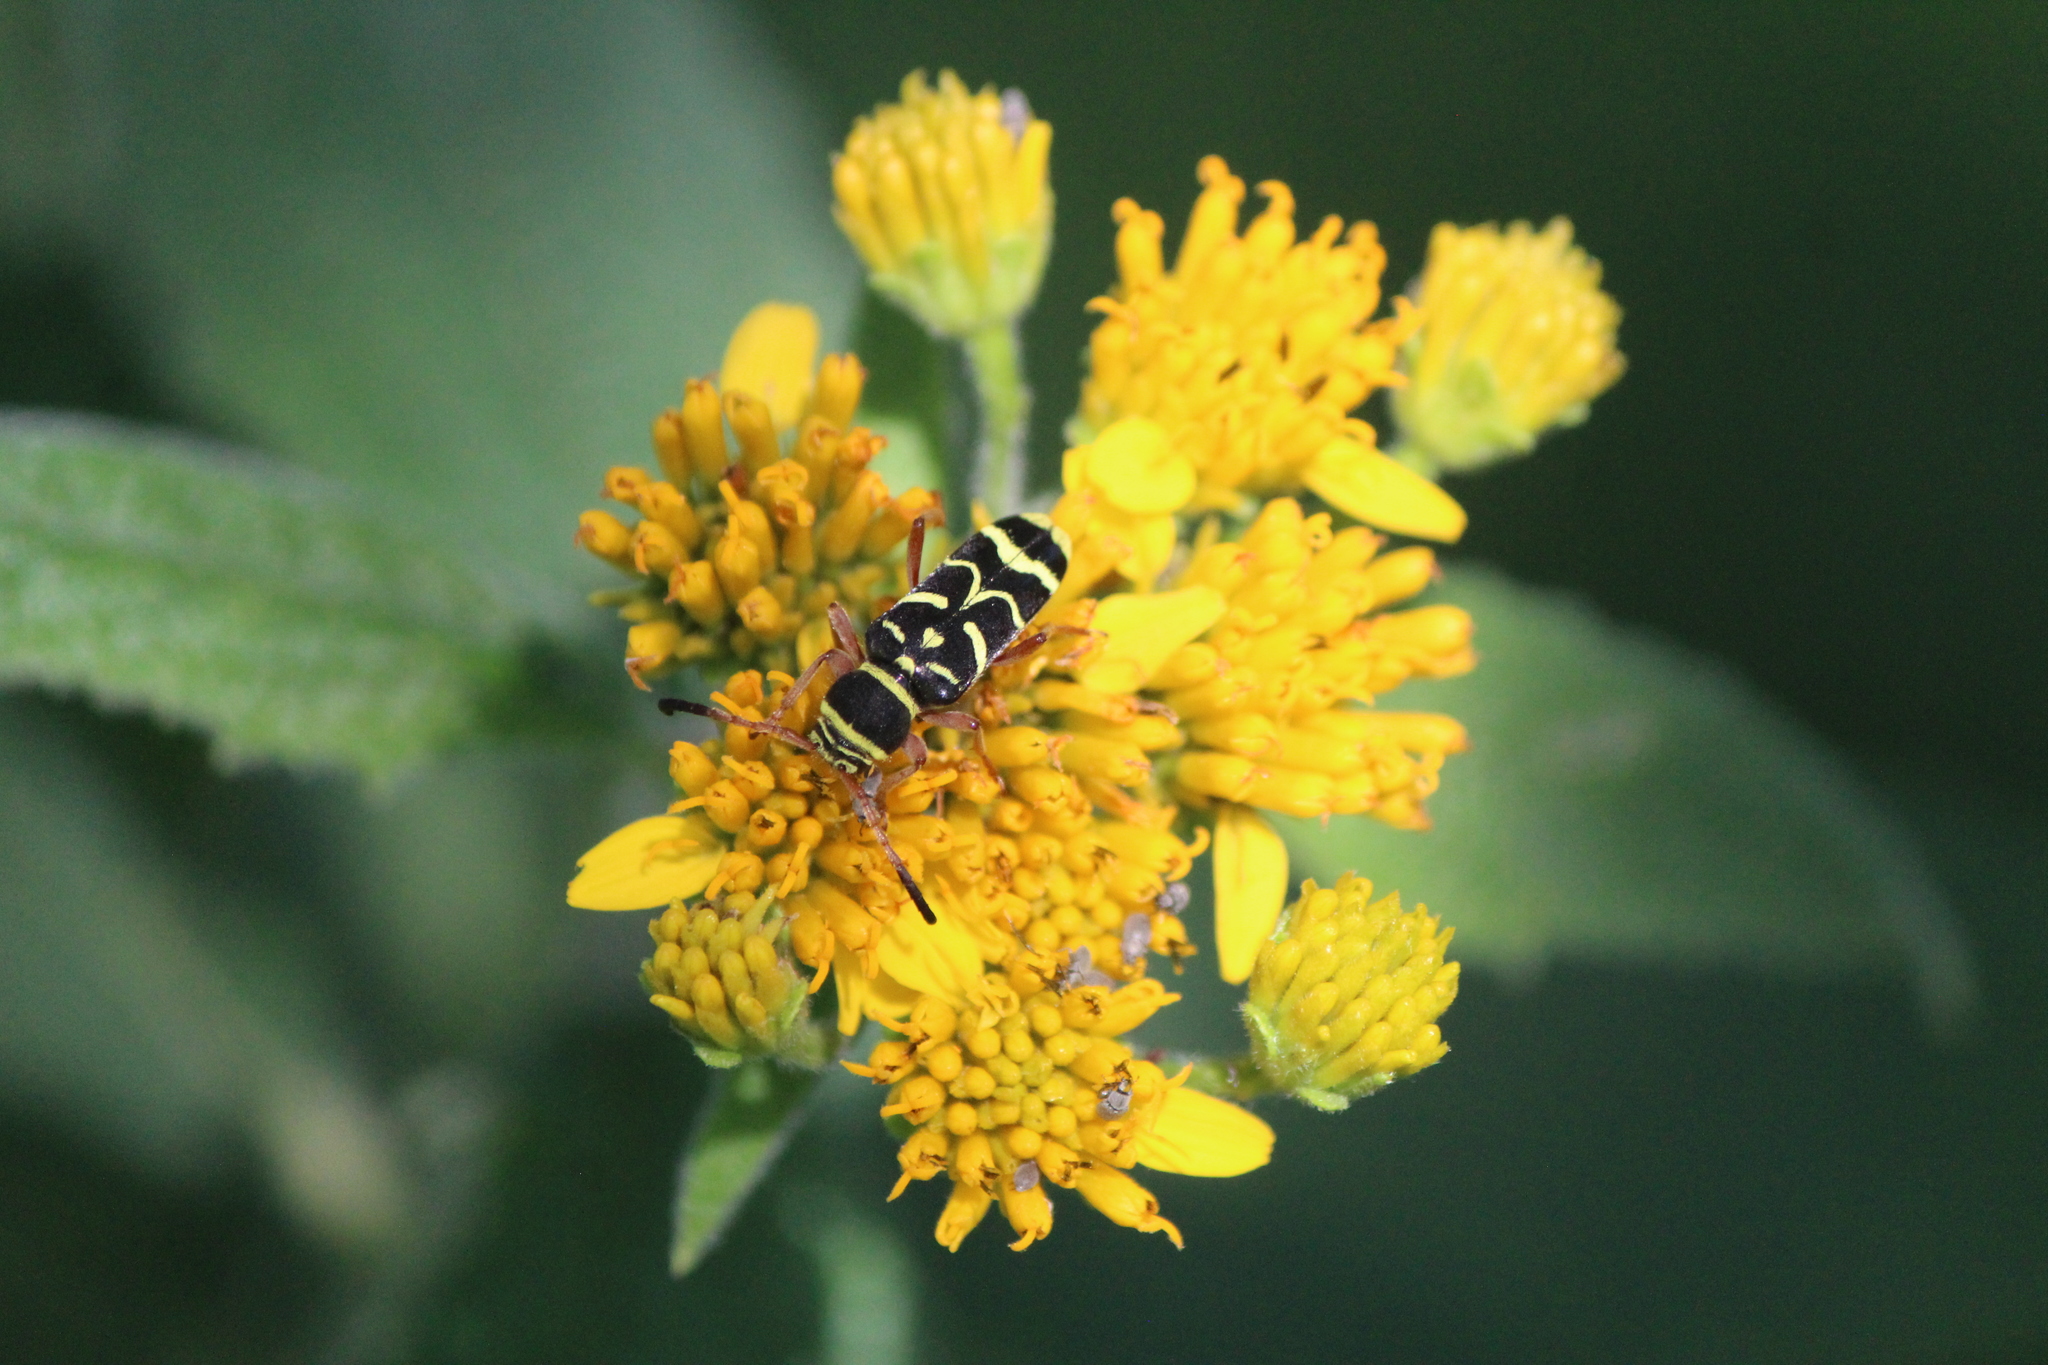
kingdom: Animalia
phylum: Arthropoda
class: Insecta
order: Coleoptera
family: Cerambycidae
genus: Ochraethes
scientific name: Ochraethes dimidiaticornis
